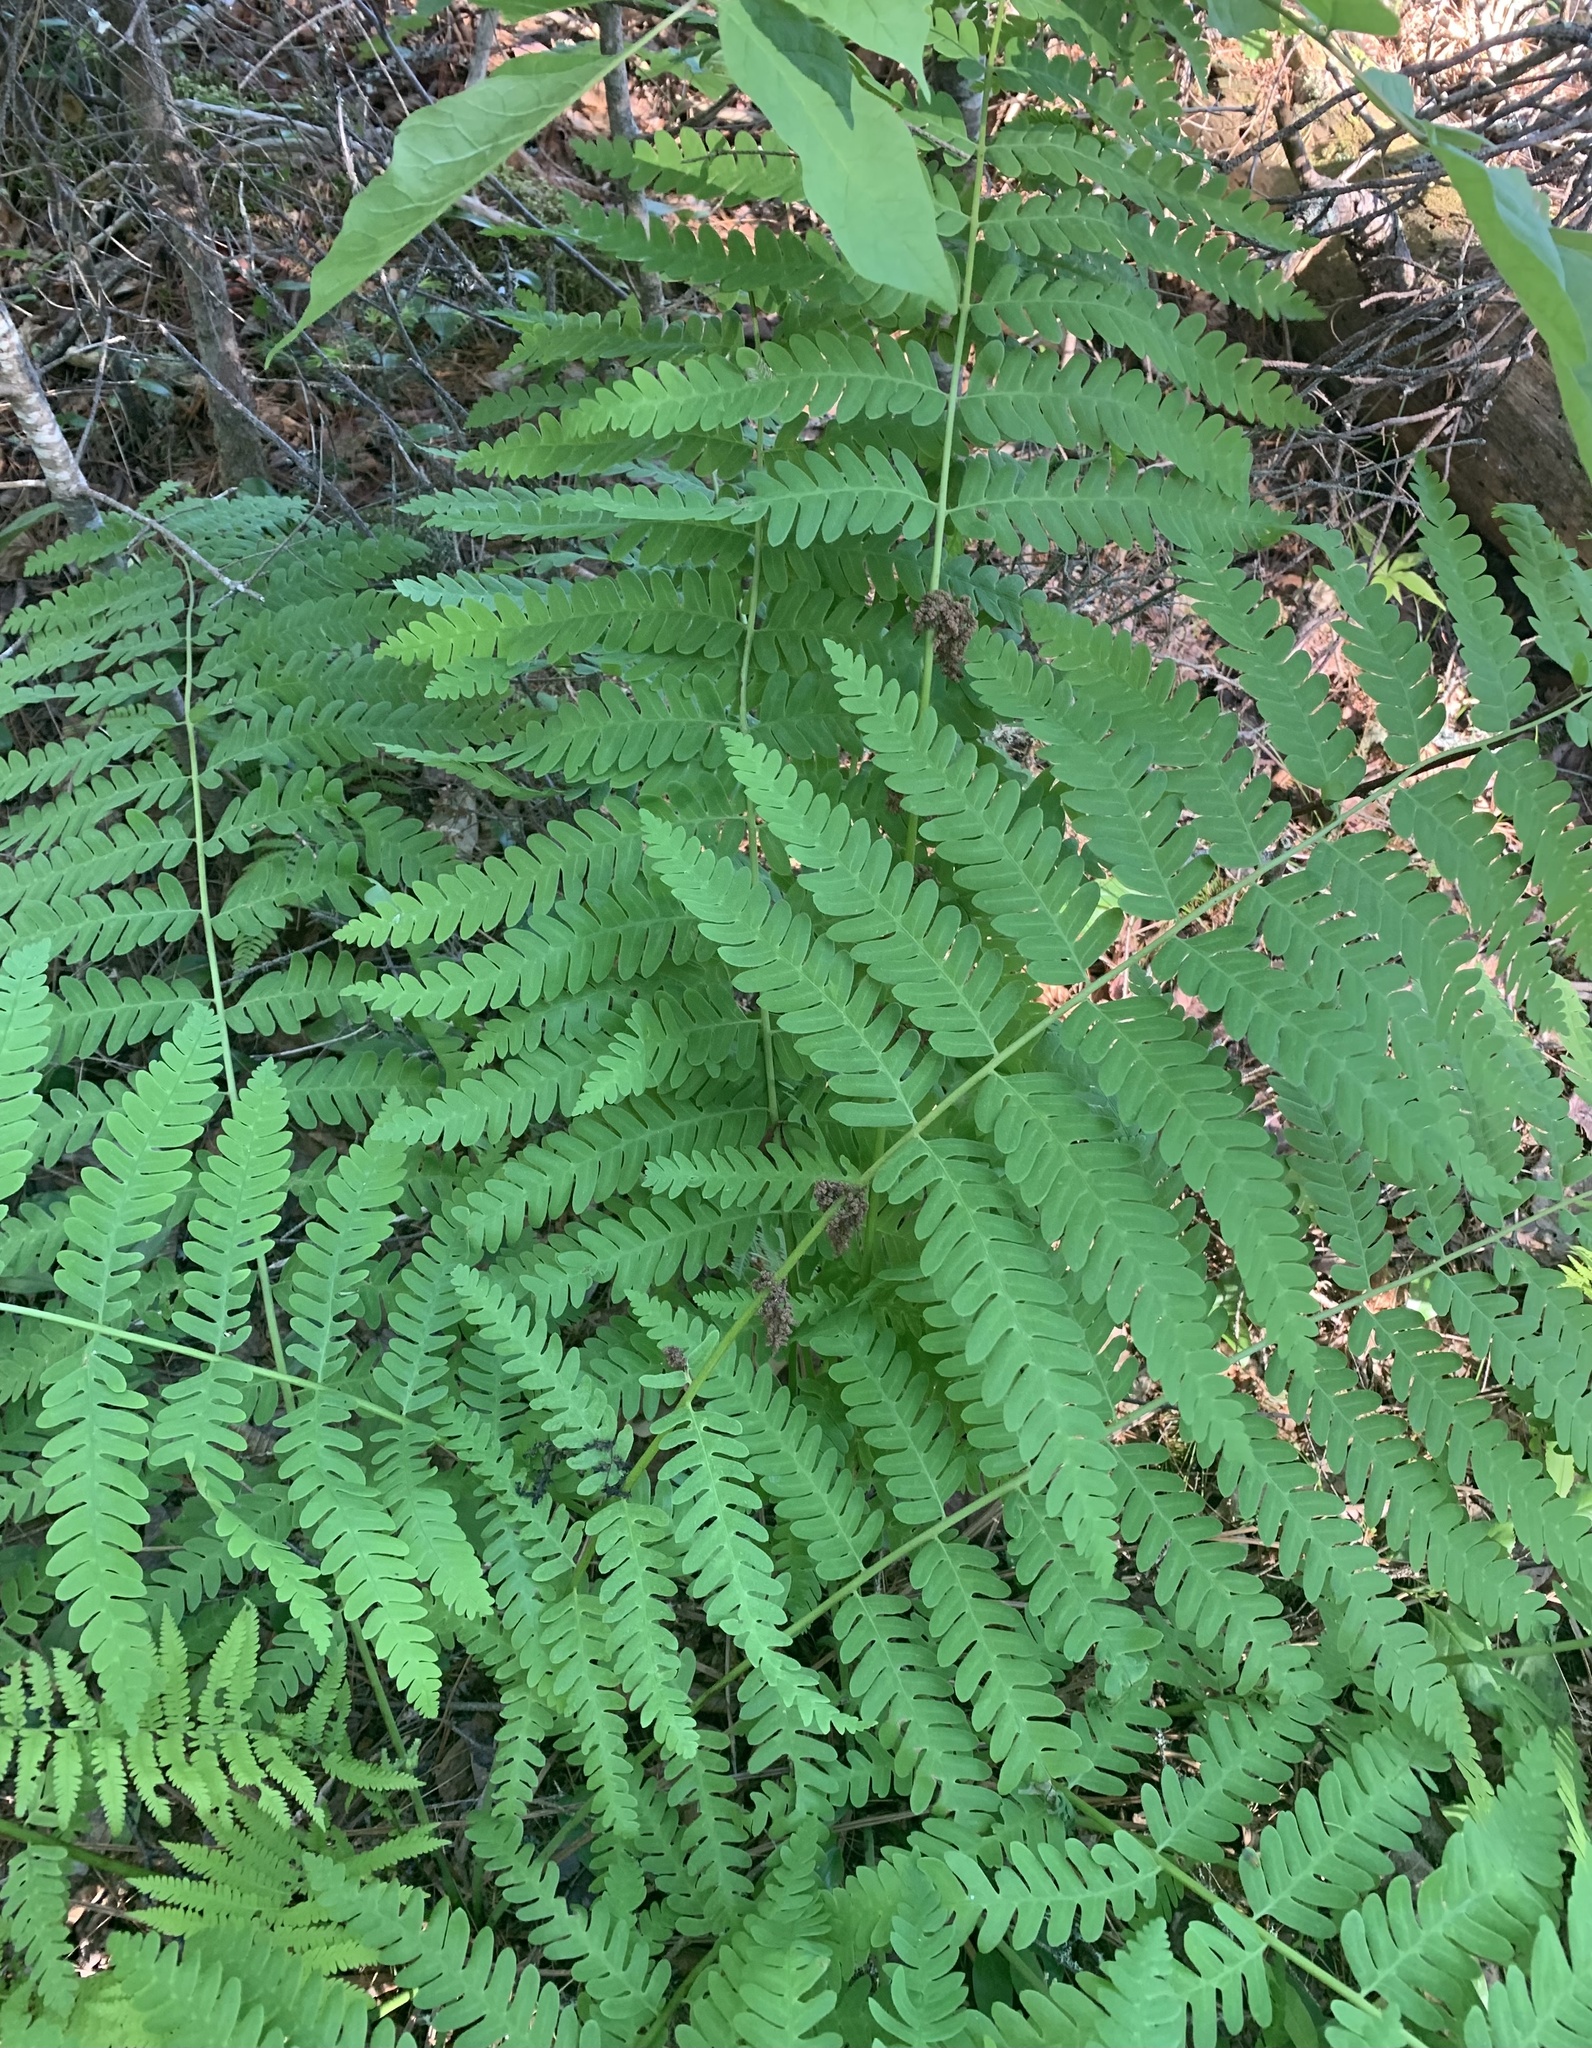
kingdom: Plantae
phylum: Tracheophyta
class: Polypodiopsida
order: Osmundales
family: Osmundaceae
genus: Claytosmunda
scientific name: Claytosmunda claytoniana
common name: Clayton's fern
